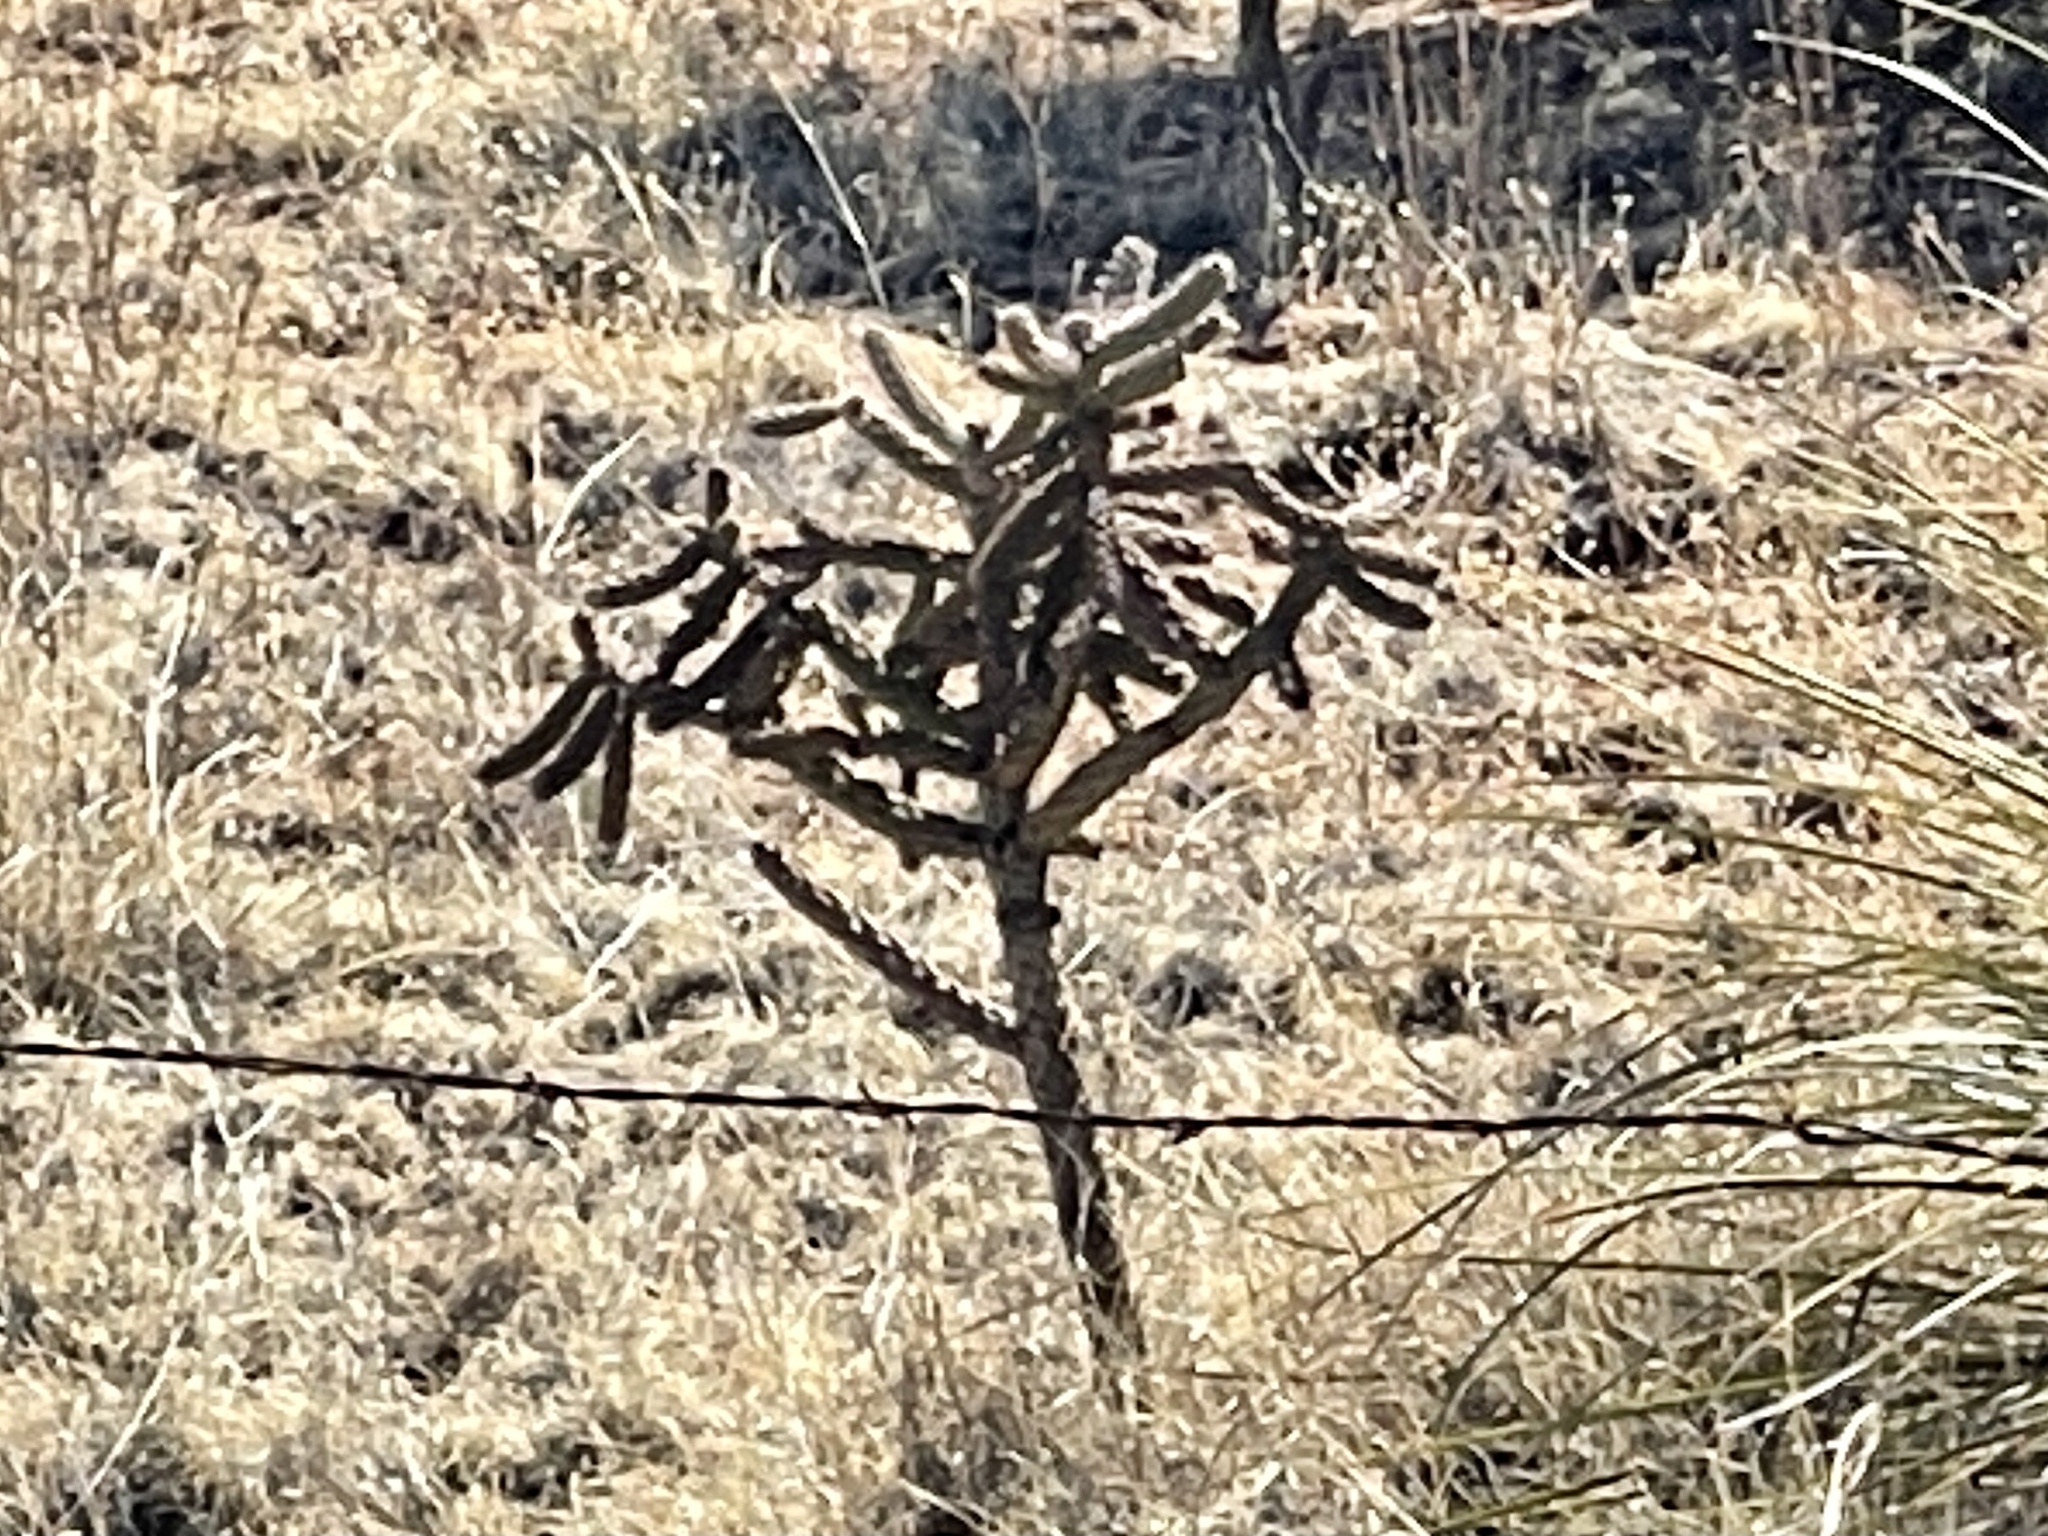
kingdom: Plantae
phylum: Tracheophyta
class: Magnoliopsida
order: Caryophyllales
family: Cactaceae
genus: Cylindropuntia
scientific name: Cylindropuntia imbricata
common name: Candelabrum cactus
